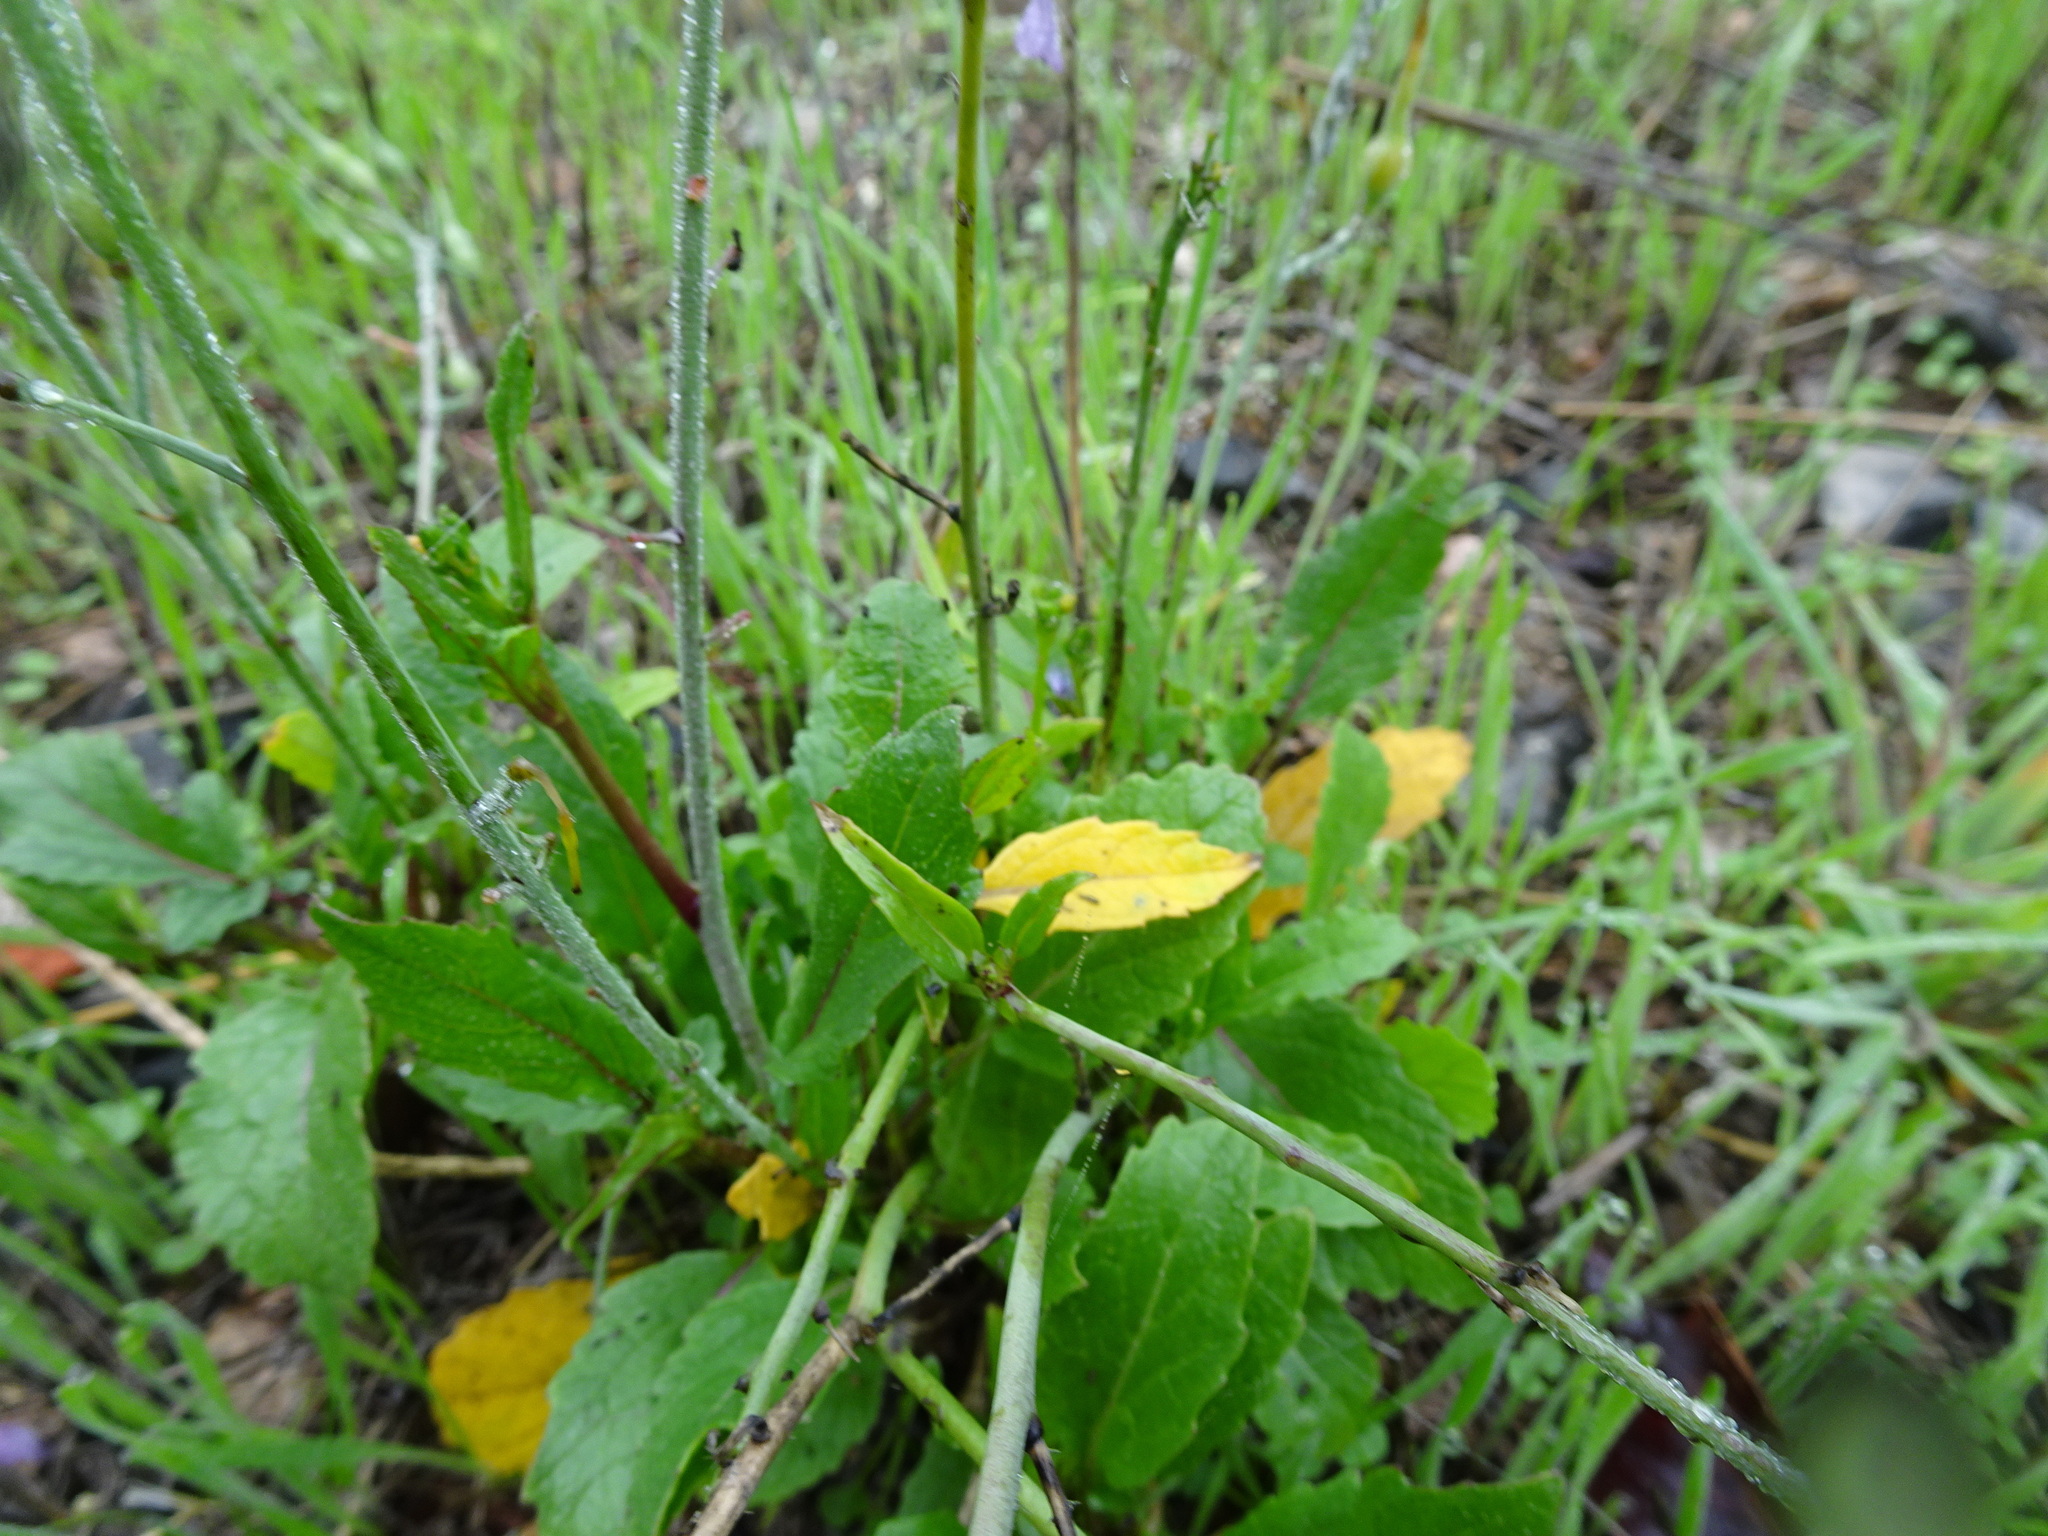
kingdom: Plantae
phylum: Tracheophyta
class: Magnoliopsida
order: Brassicales
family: Brassicaceae
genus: Raphanus
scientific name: Raphanus sativus
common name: Cultivated radish
